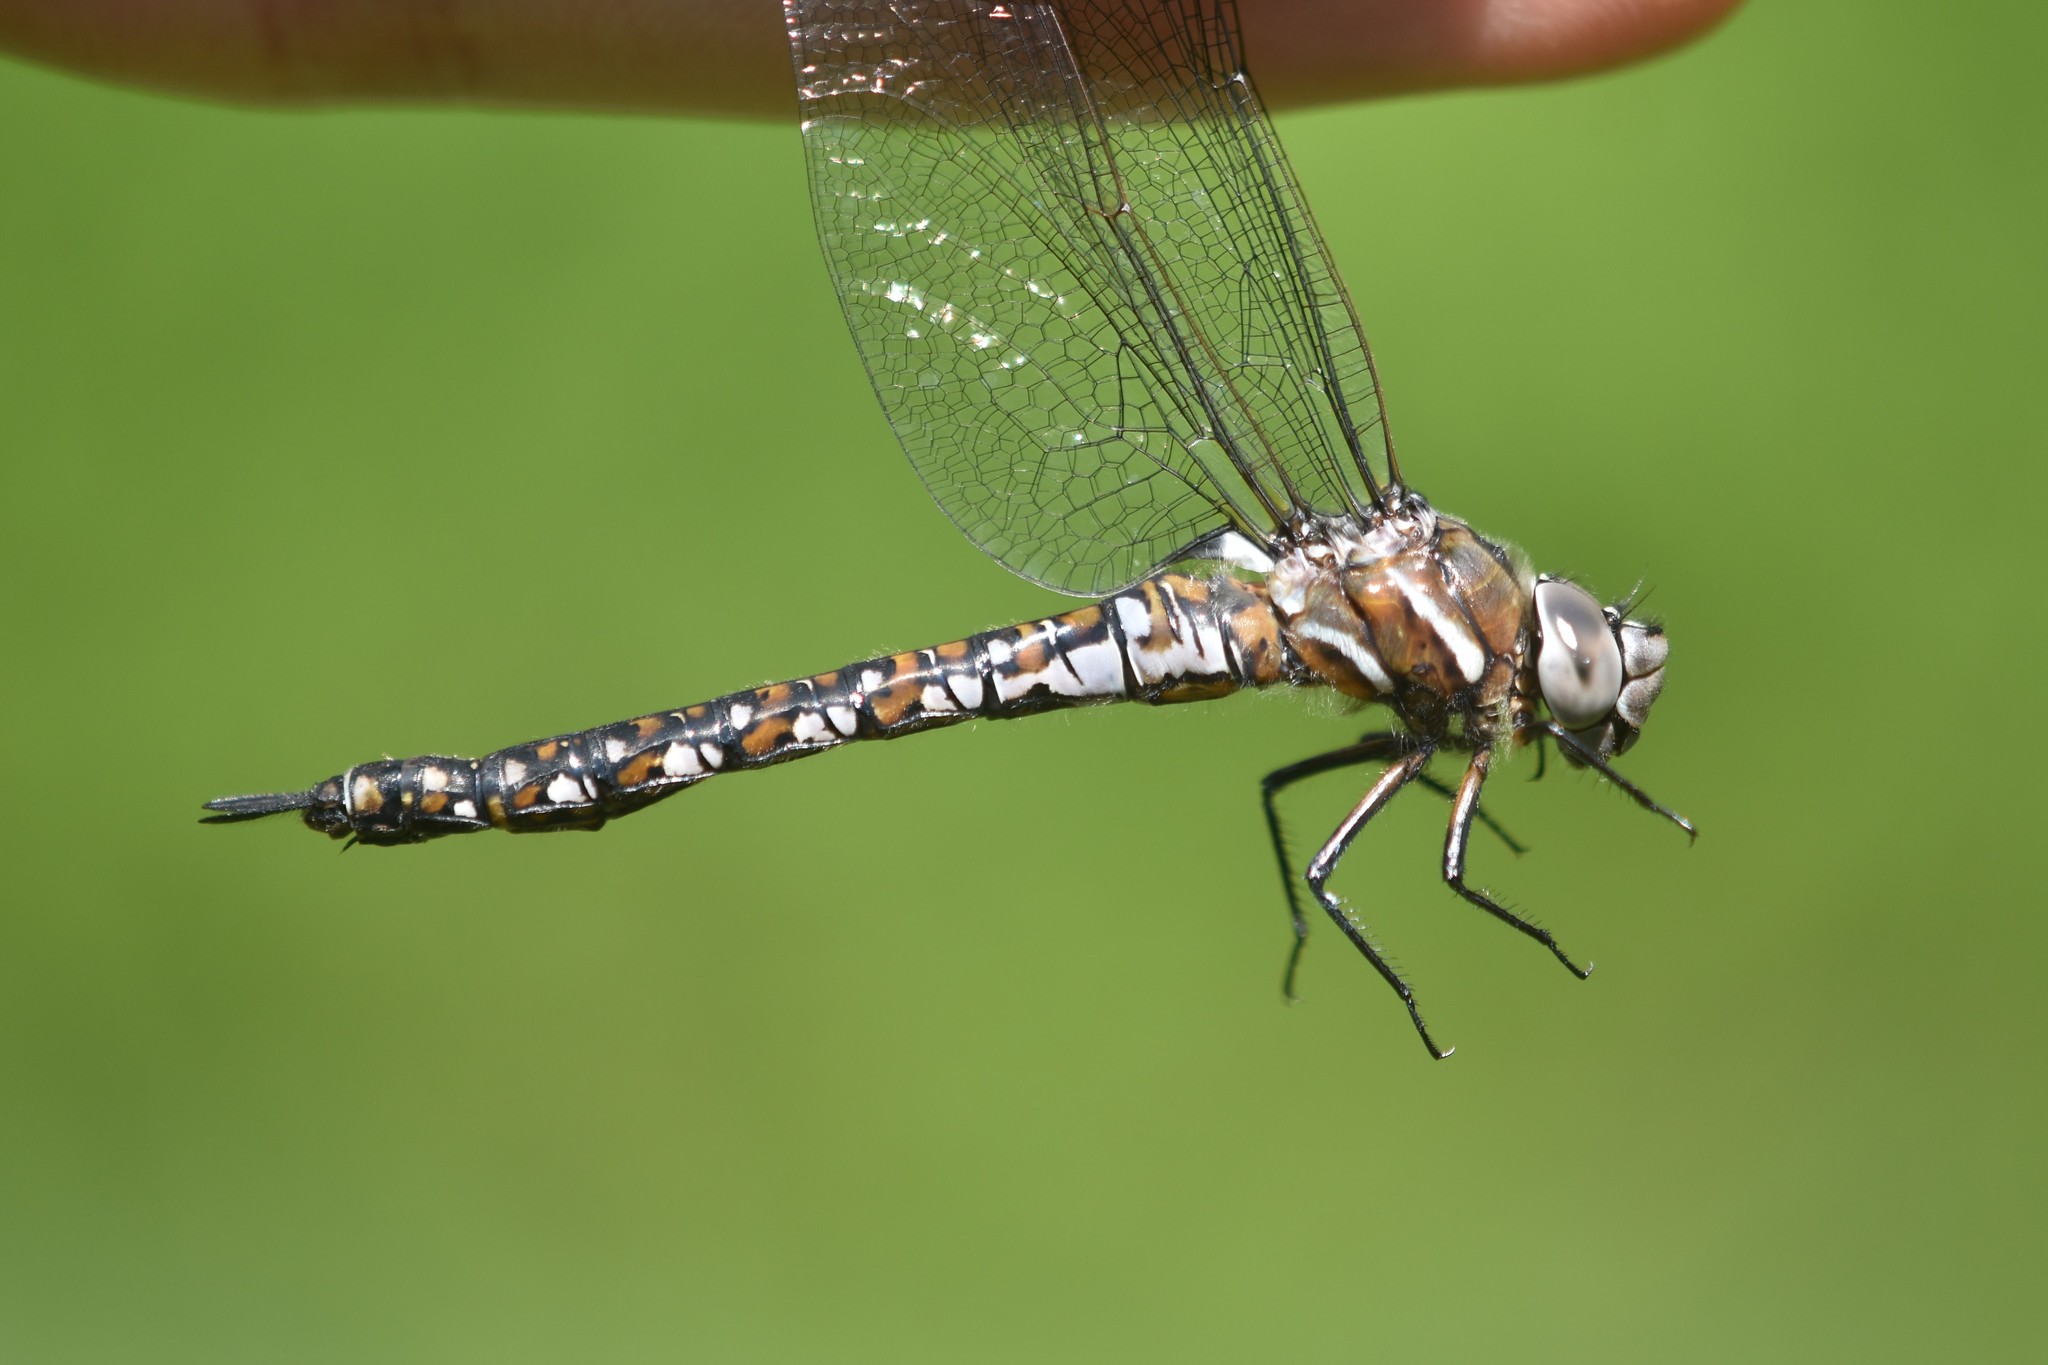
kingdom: Animalia
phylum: Arthropoda
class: Insecta
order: Odonata
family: Aeshnidae
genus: Rhionaeschna
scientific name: Rhionaeschna californica
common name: California darner
